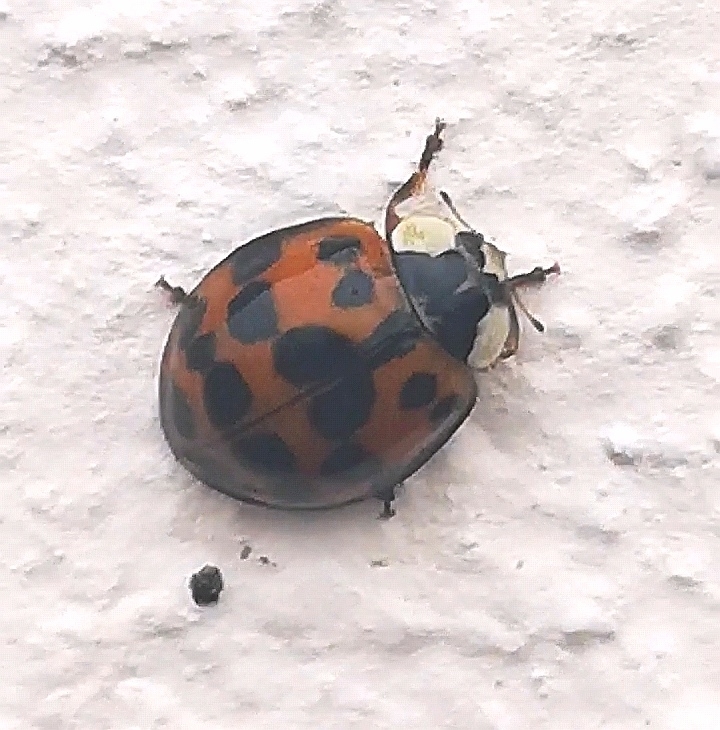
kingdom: Animalia
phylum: Arthropoda
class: Insecta
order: Coleoptera
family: Coccinellidae
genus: Harmonia
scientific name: Harmonia axyridis
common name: Harlequin ladybird
